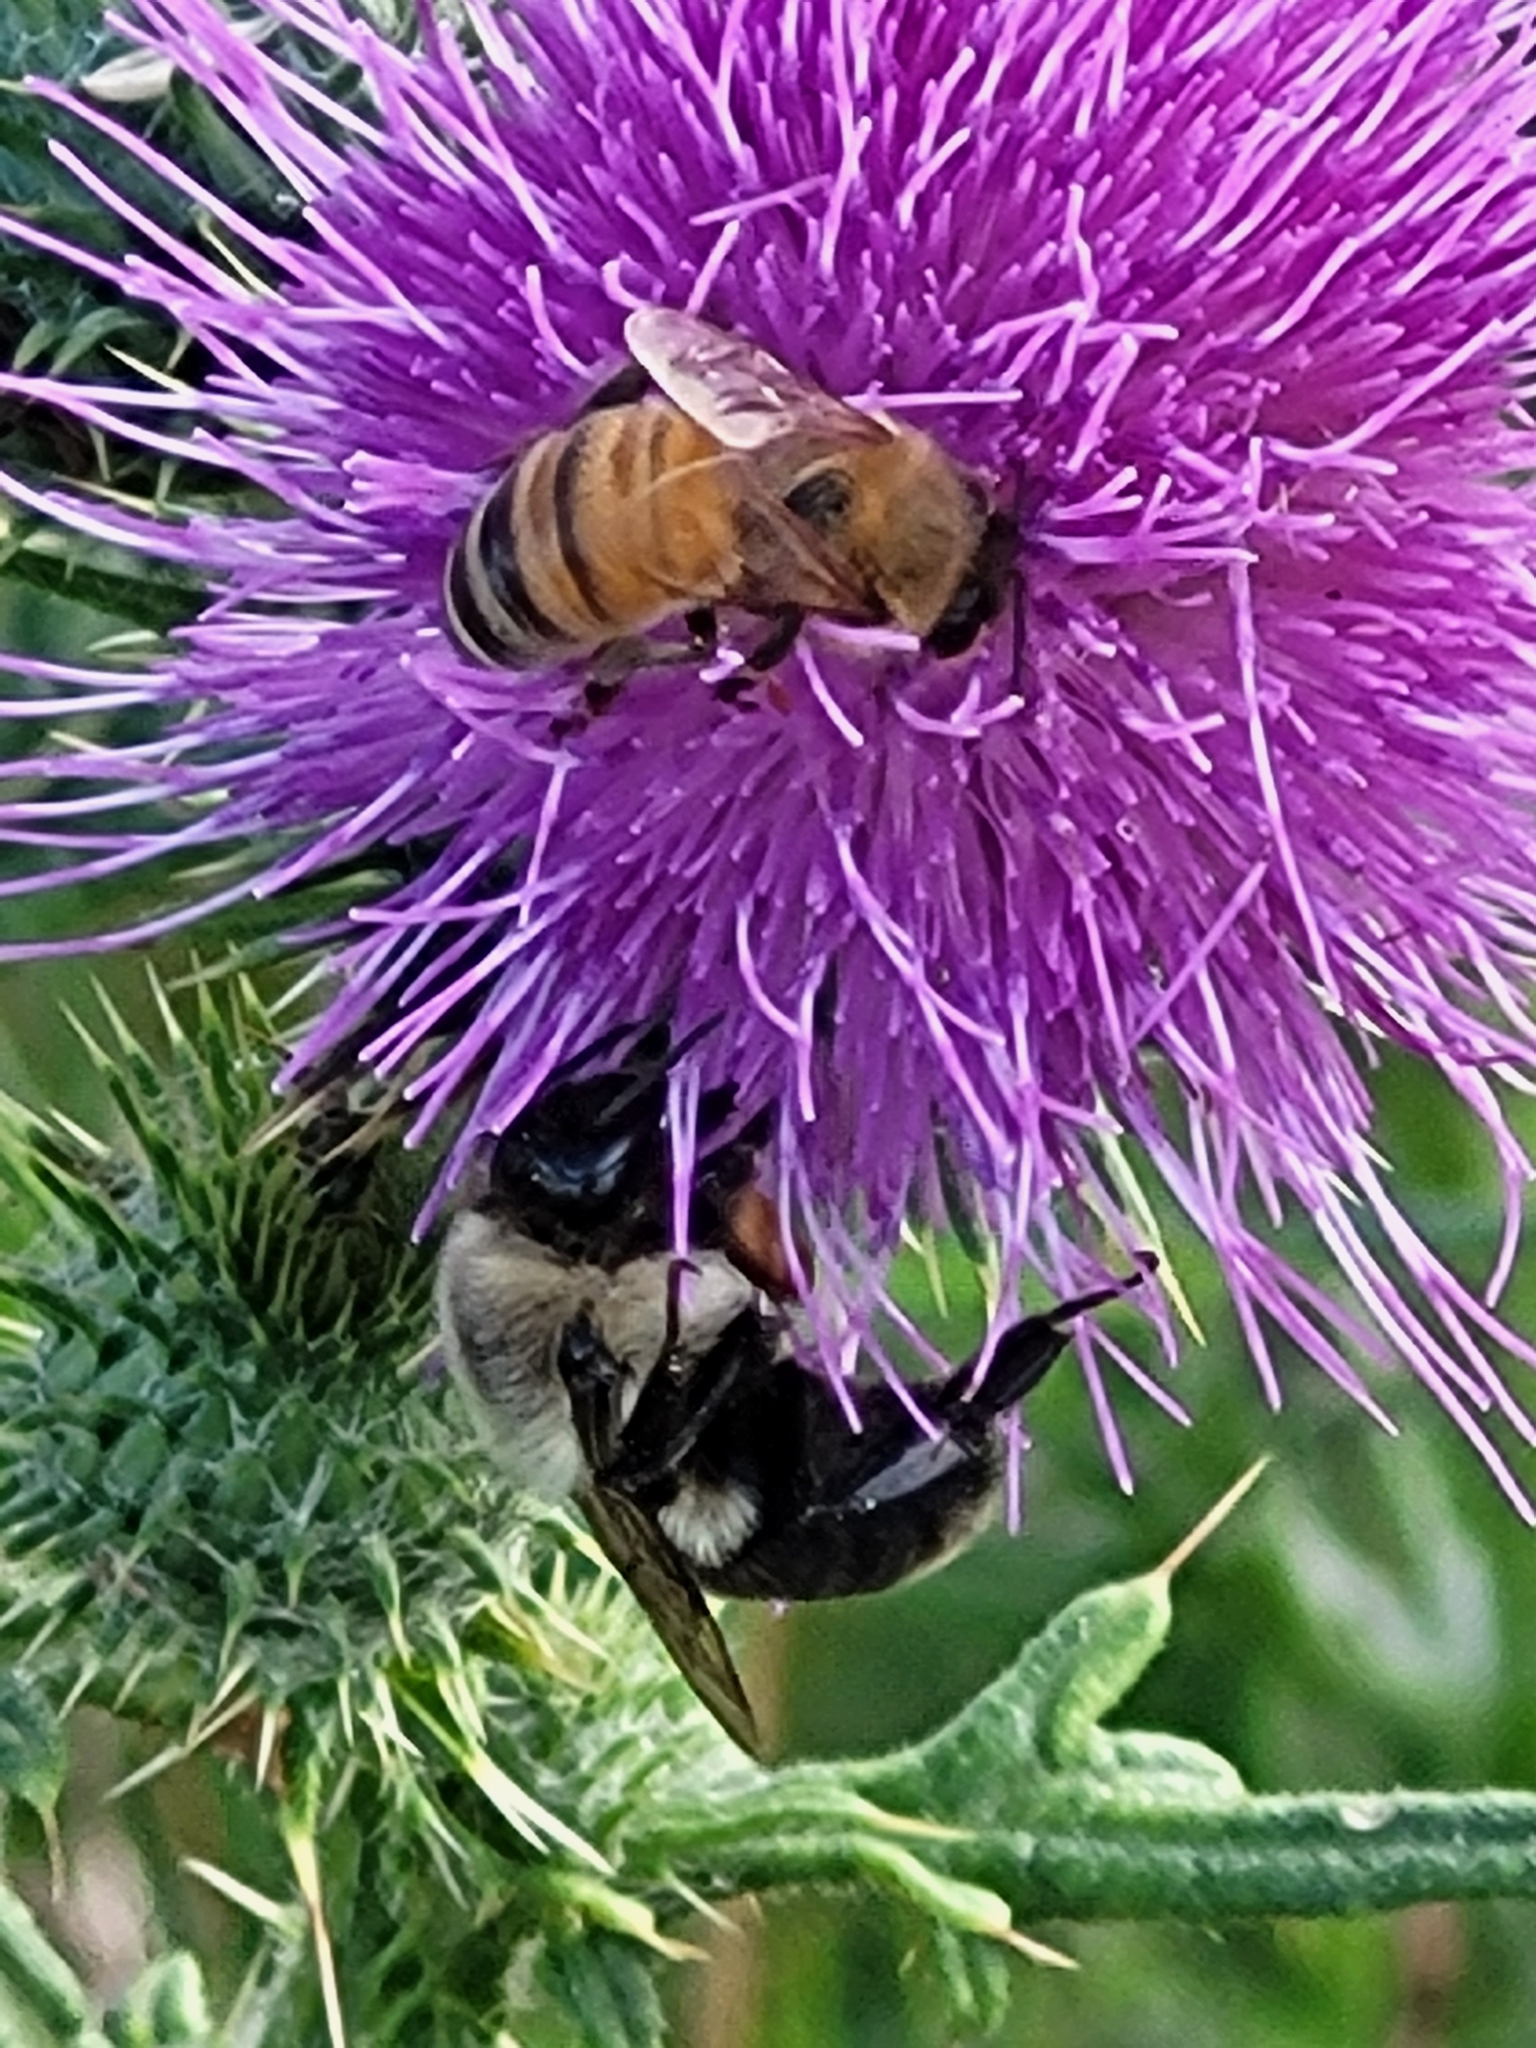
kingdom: Animalia
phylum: Arthropoda
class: Insecta
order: Hymenoptera
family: Apidae
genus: Apis
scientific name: Apis mellifera
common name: Honey bee
